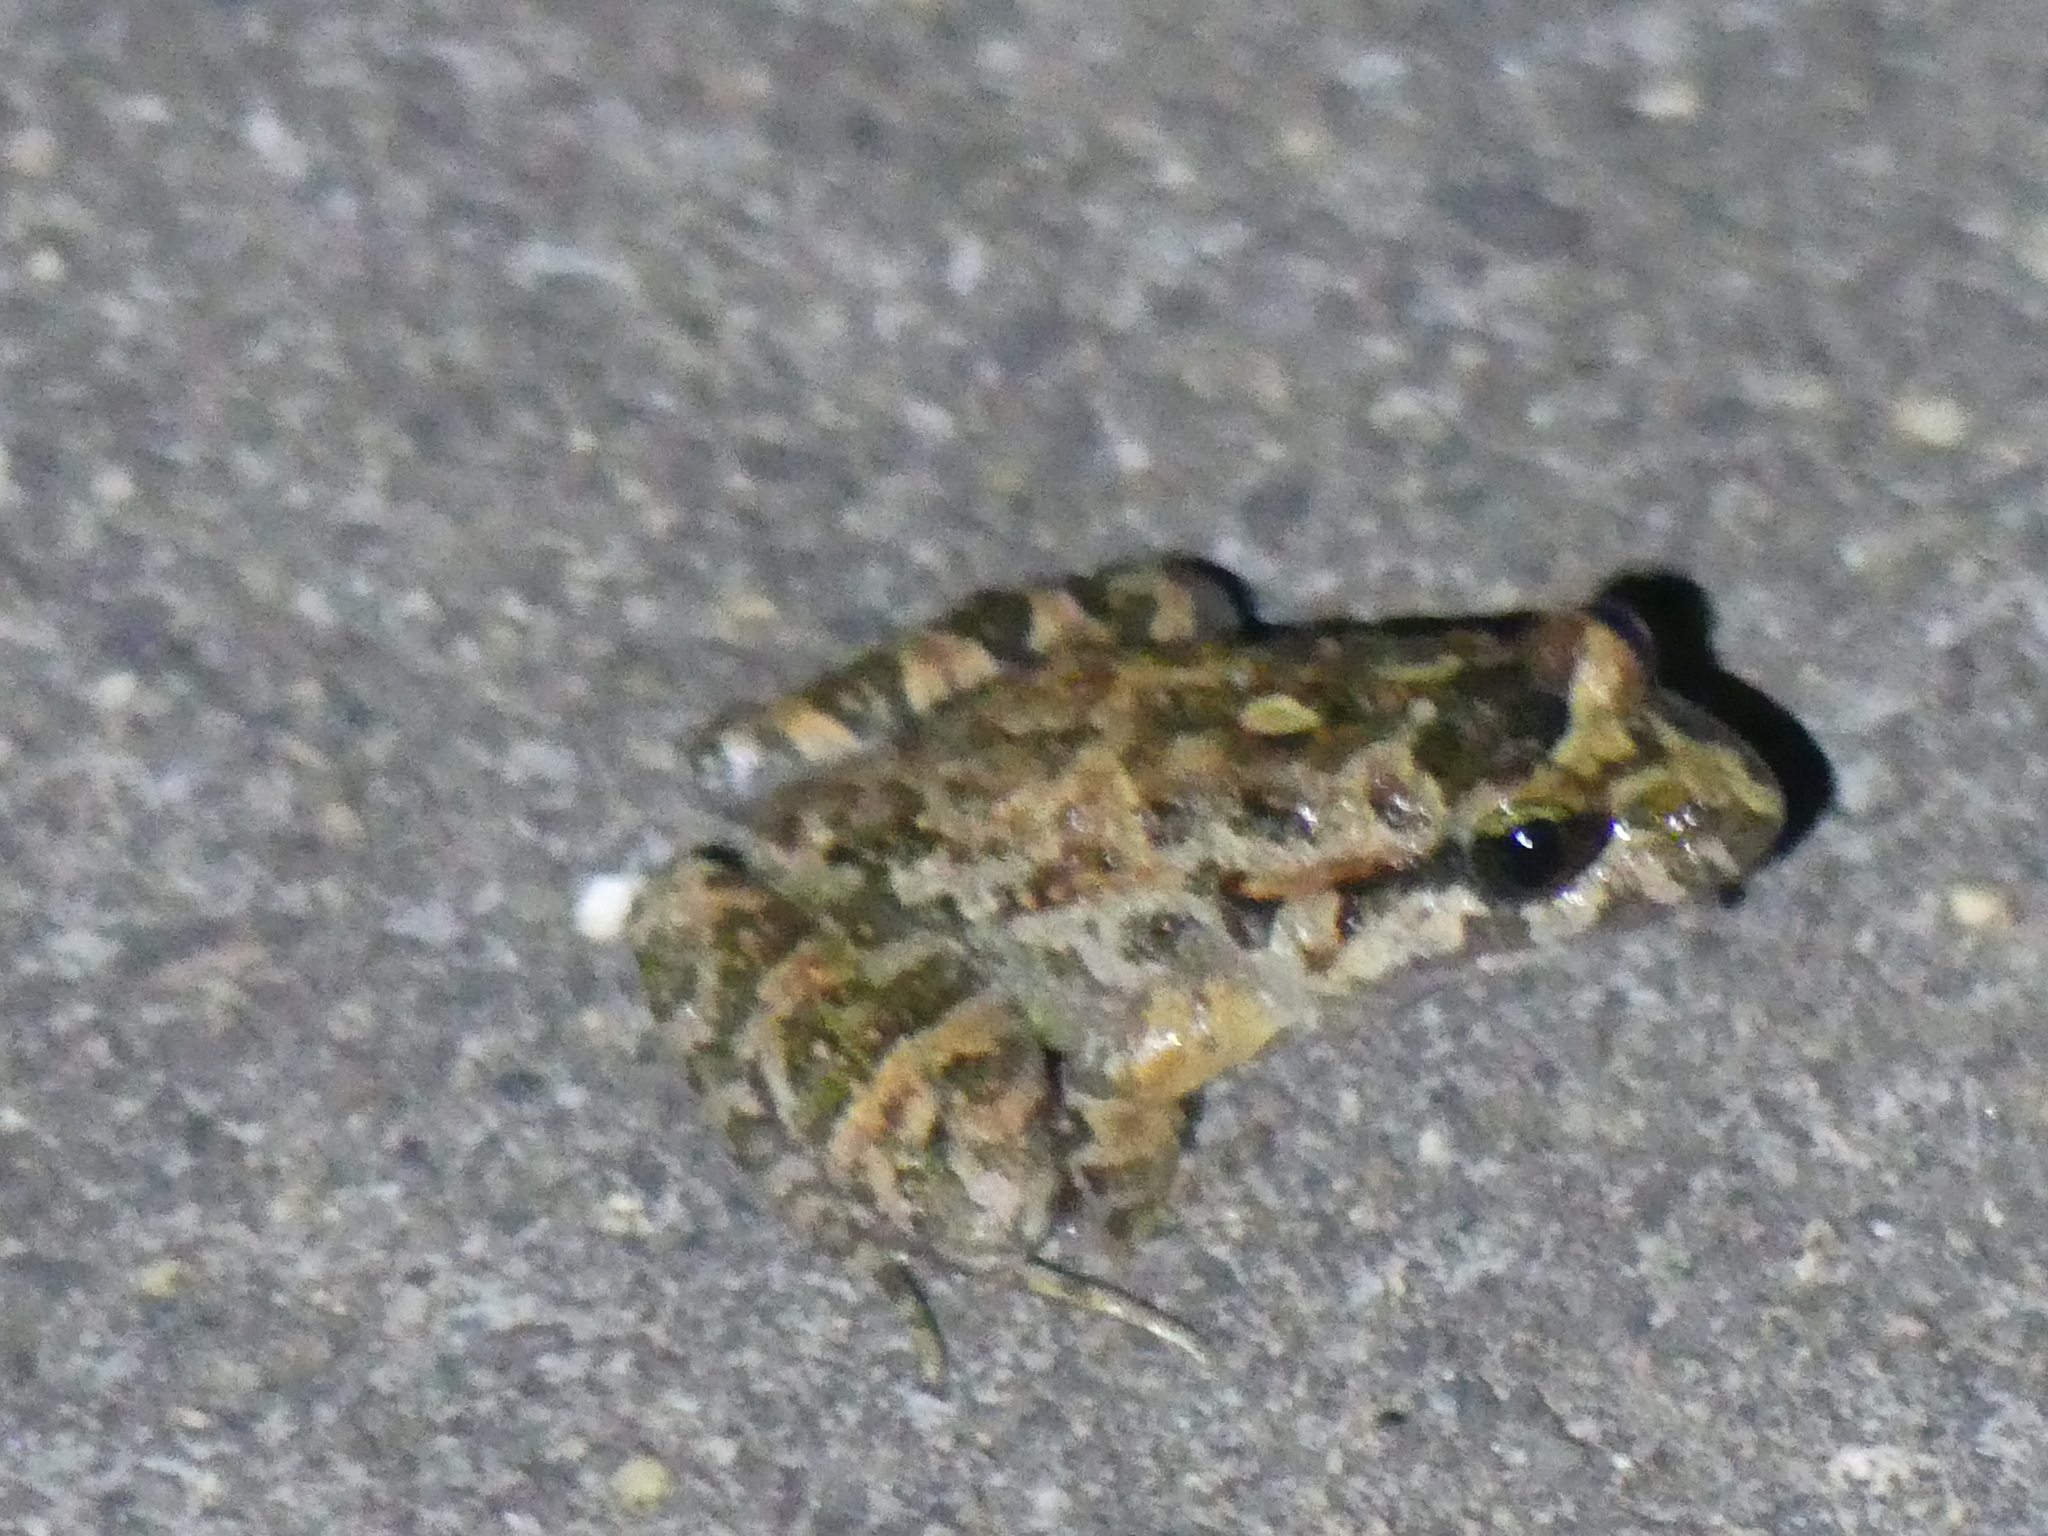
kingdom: Animalia
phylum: Chordata
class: Amphibia
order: Anura
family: Alytidae
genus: Discoglossus
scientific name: Discoglossus sardus
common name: Sardinia painted frog
